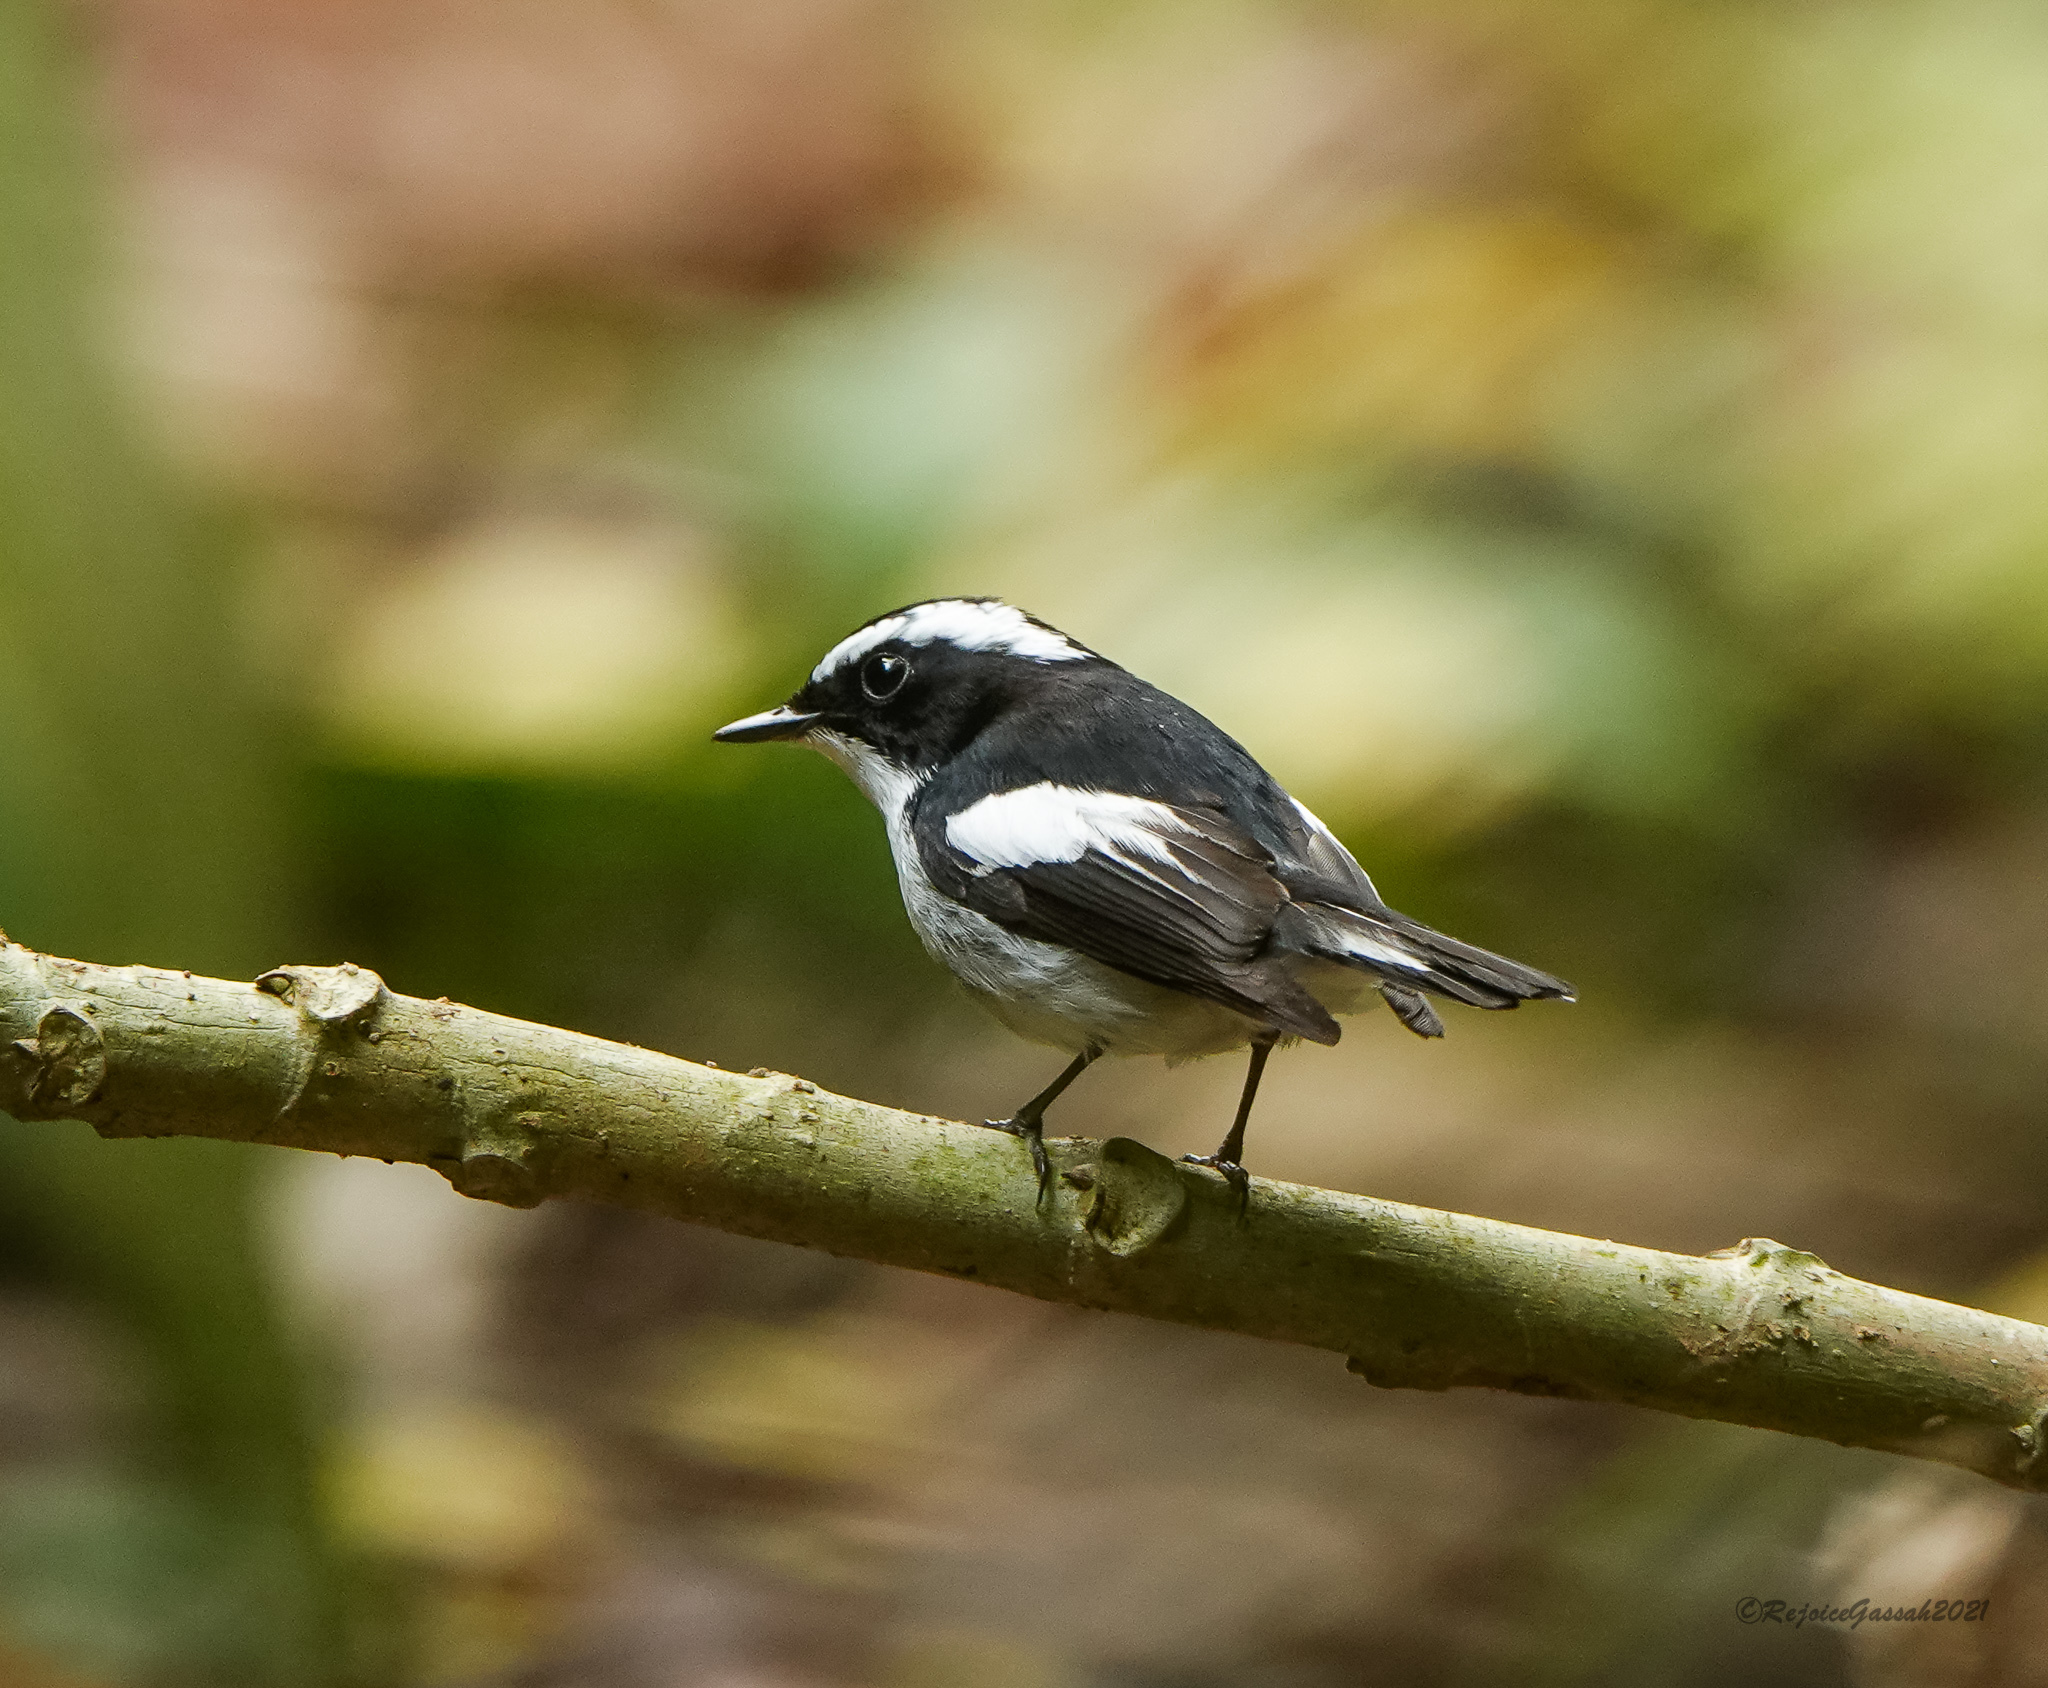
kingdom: Animalia
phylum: Chordata
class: Aves
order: Passeriformes
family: Muscicapidae
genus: Ficedula
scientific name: Ficedula westermanni
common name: Little pied flycatcher
